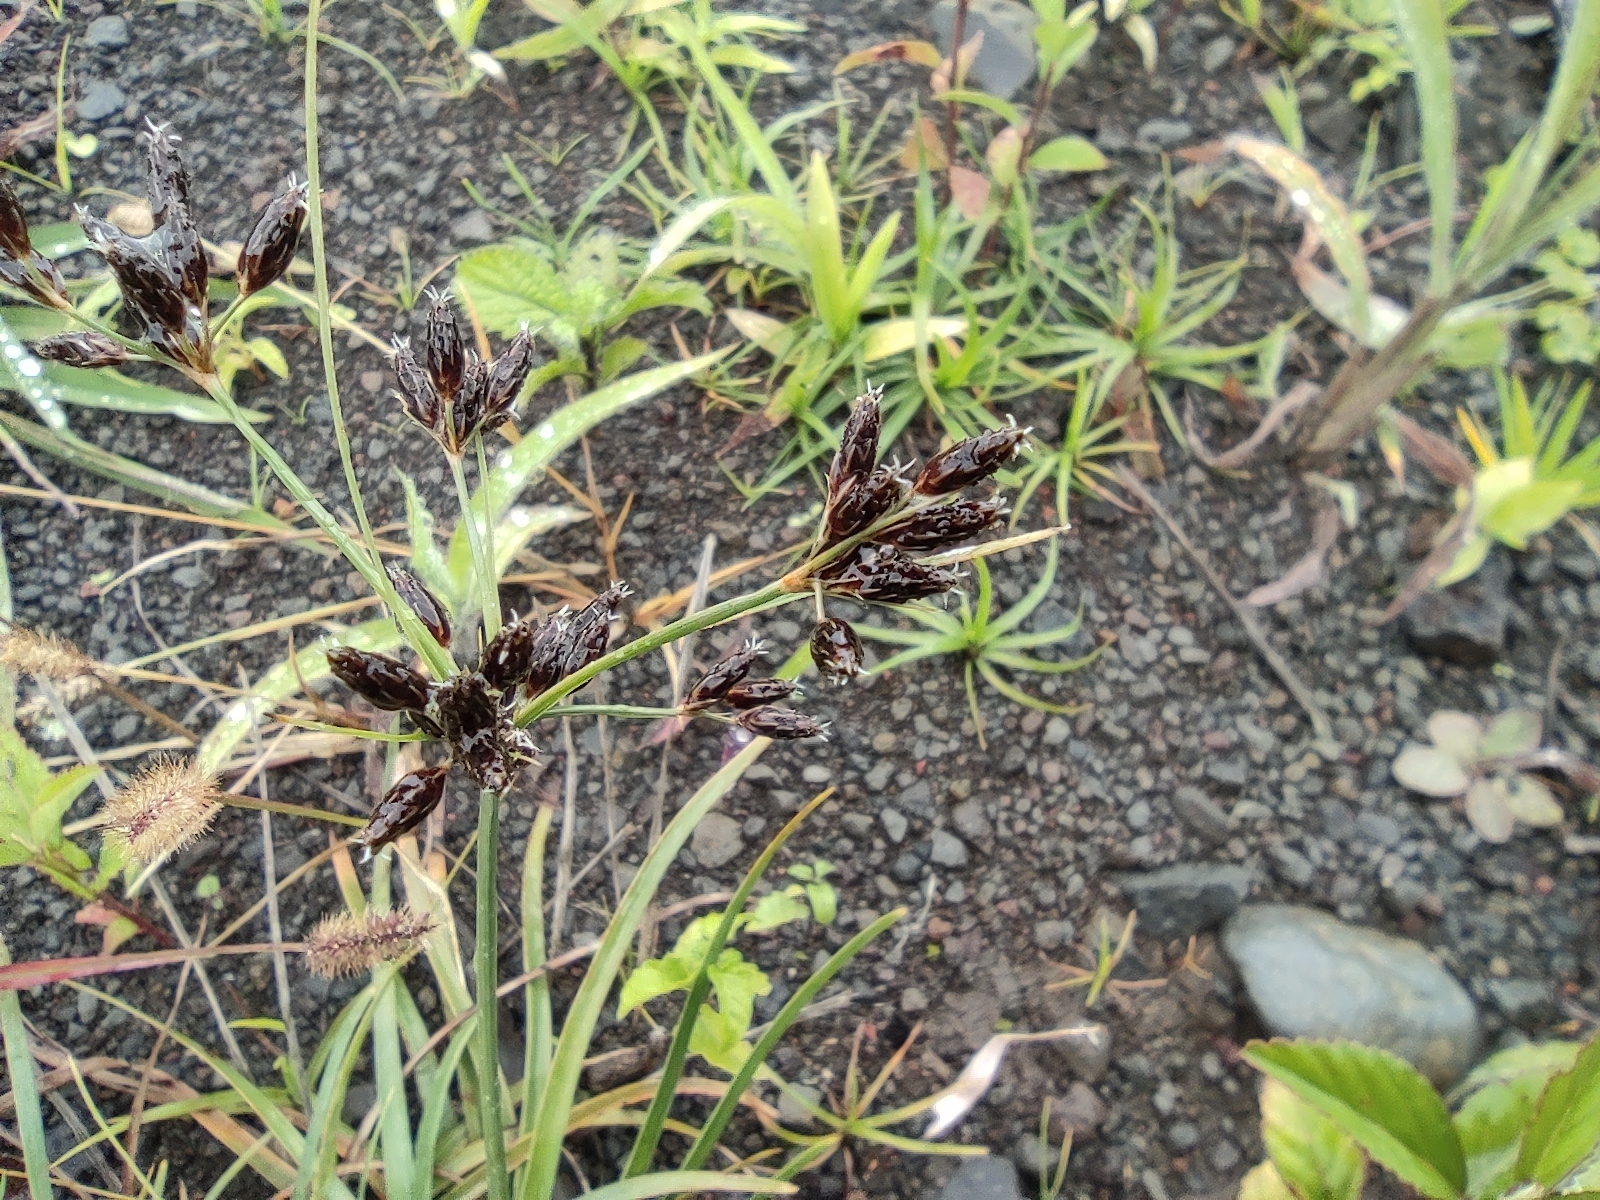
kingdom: Plantae
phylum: Tracheophyta
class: Liliopsida
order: Poales
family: Cyperaceae
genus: Fimbristylis
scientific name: Fimbristylis dichotoma
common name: Forked fimbry
